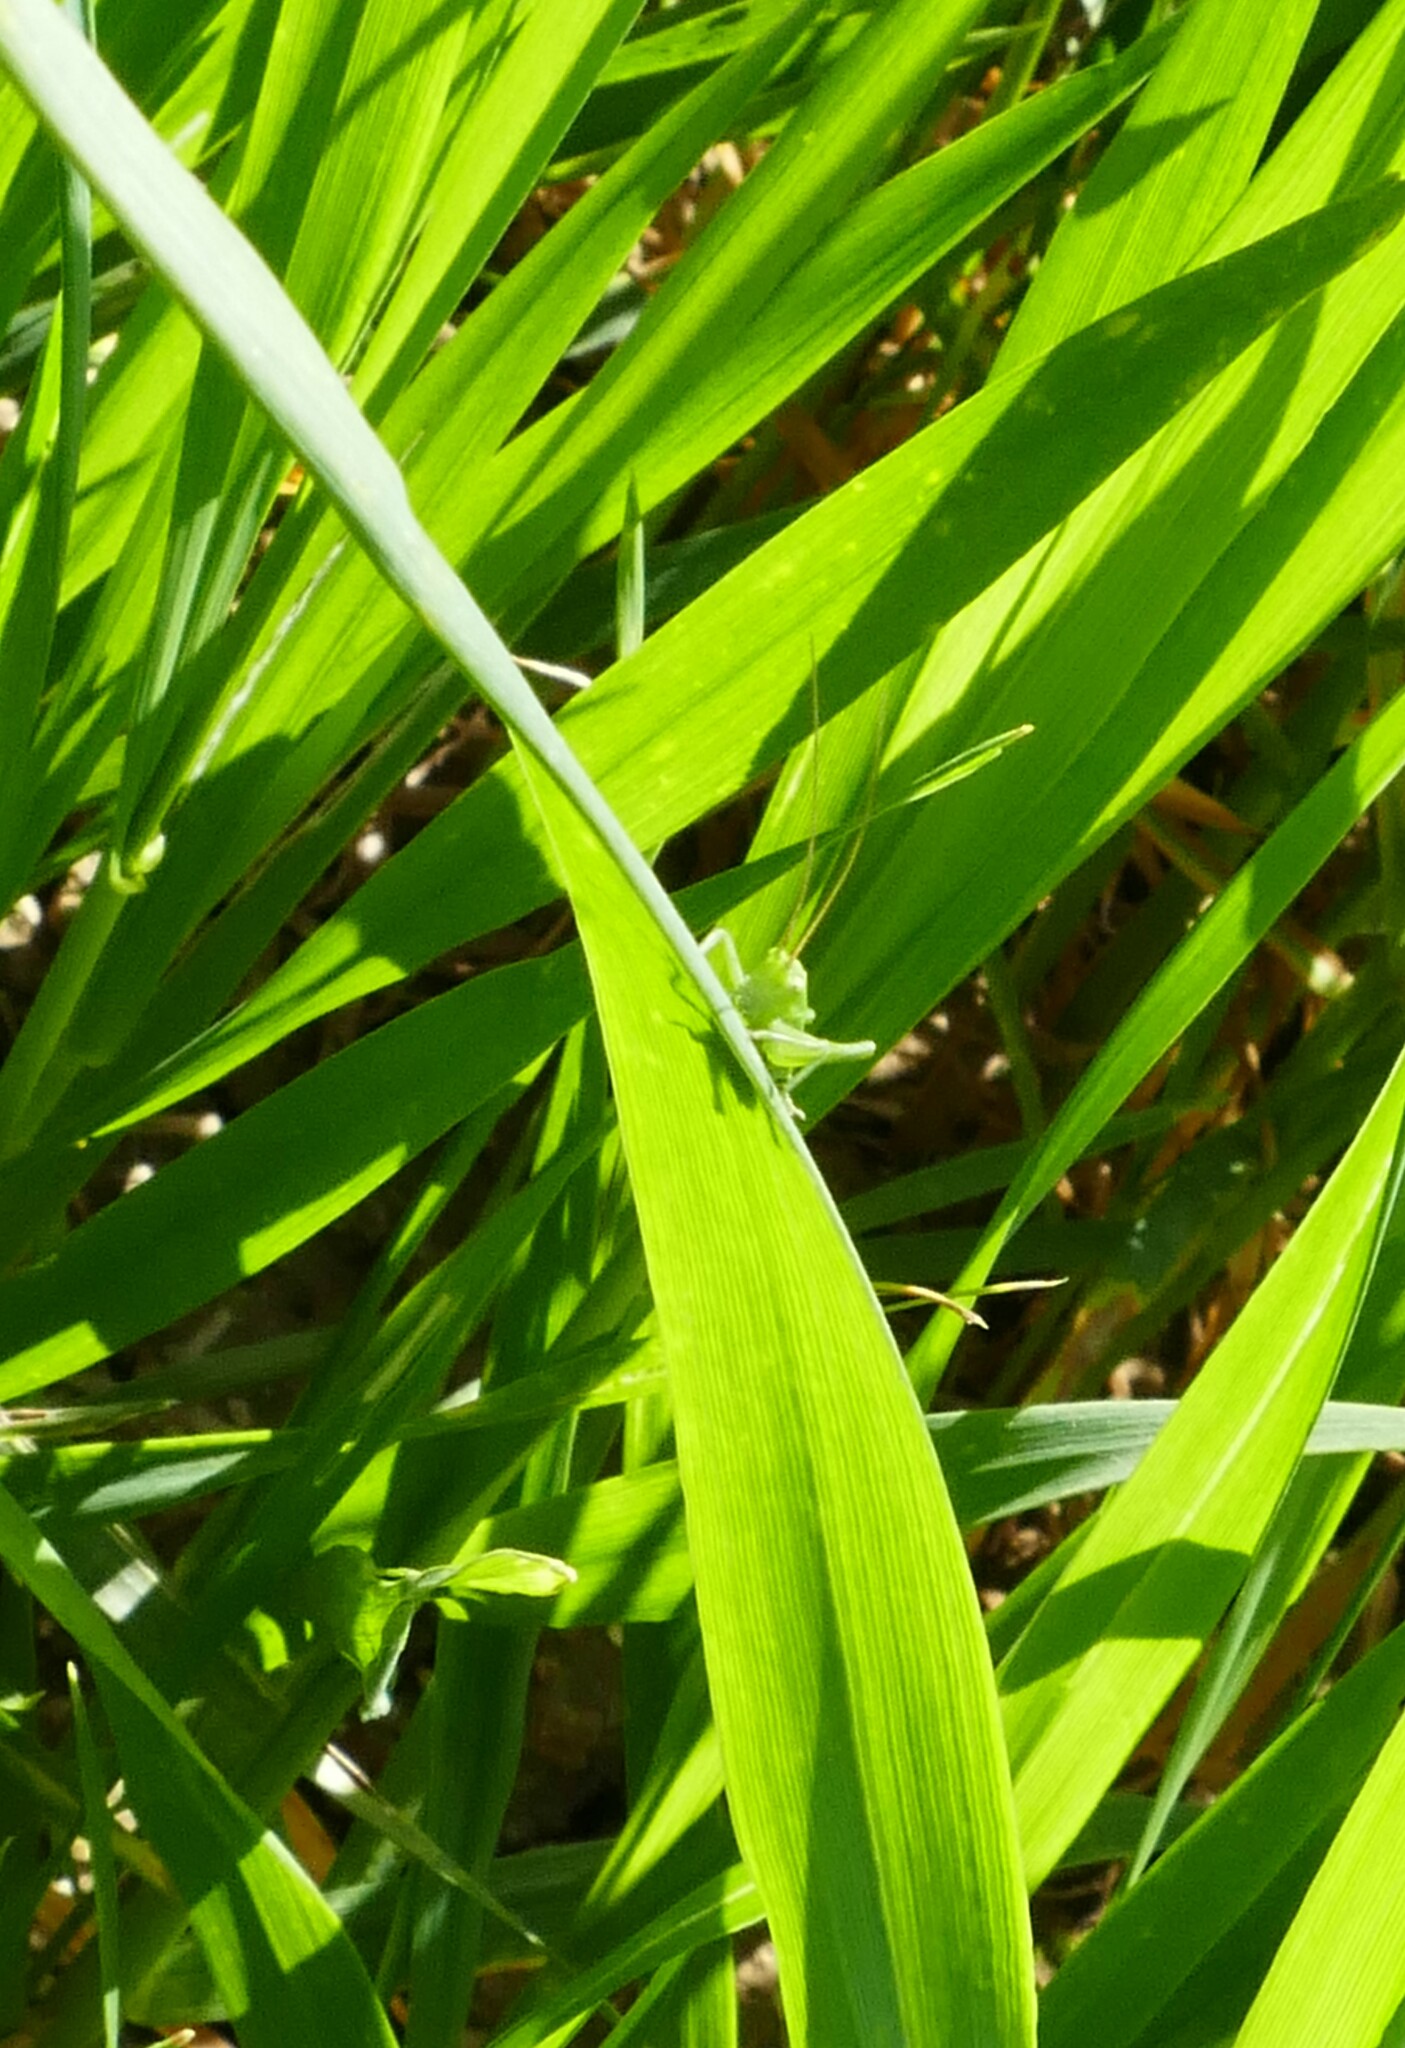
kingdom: Animalia
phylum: Arthropoda
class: Insecta
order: Orthoptera
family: Tettigoniidae
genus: Tettigonia
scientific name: Tettigonia viridissima
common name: Great green bush-cricket
